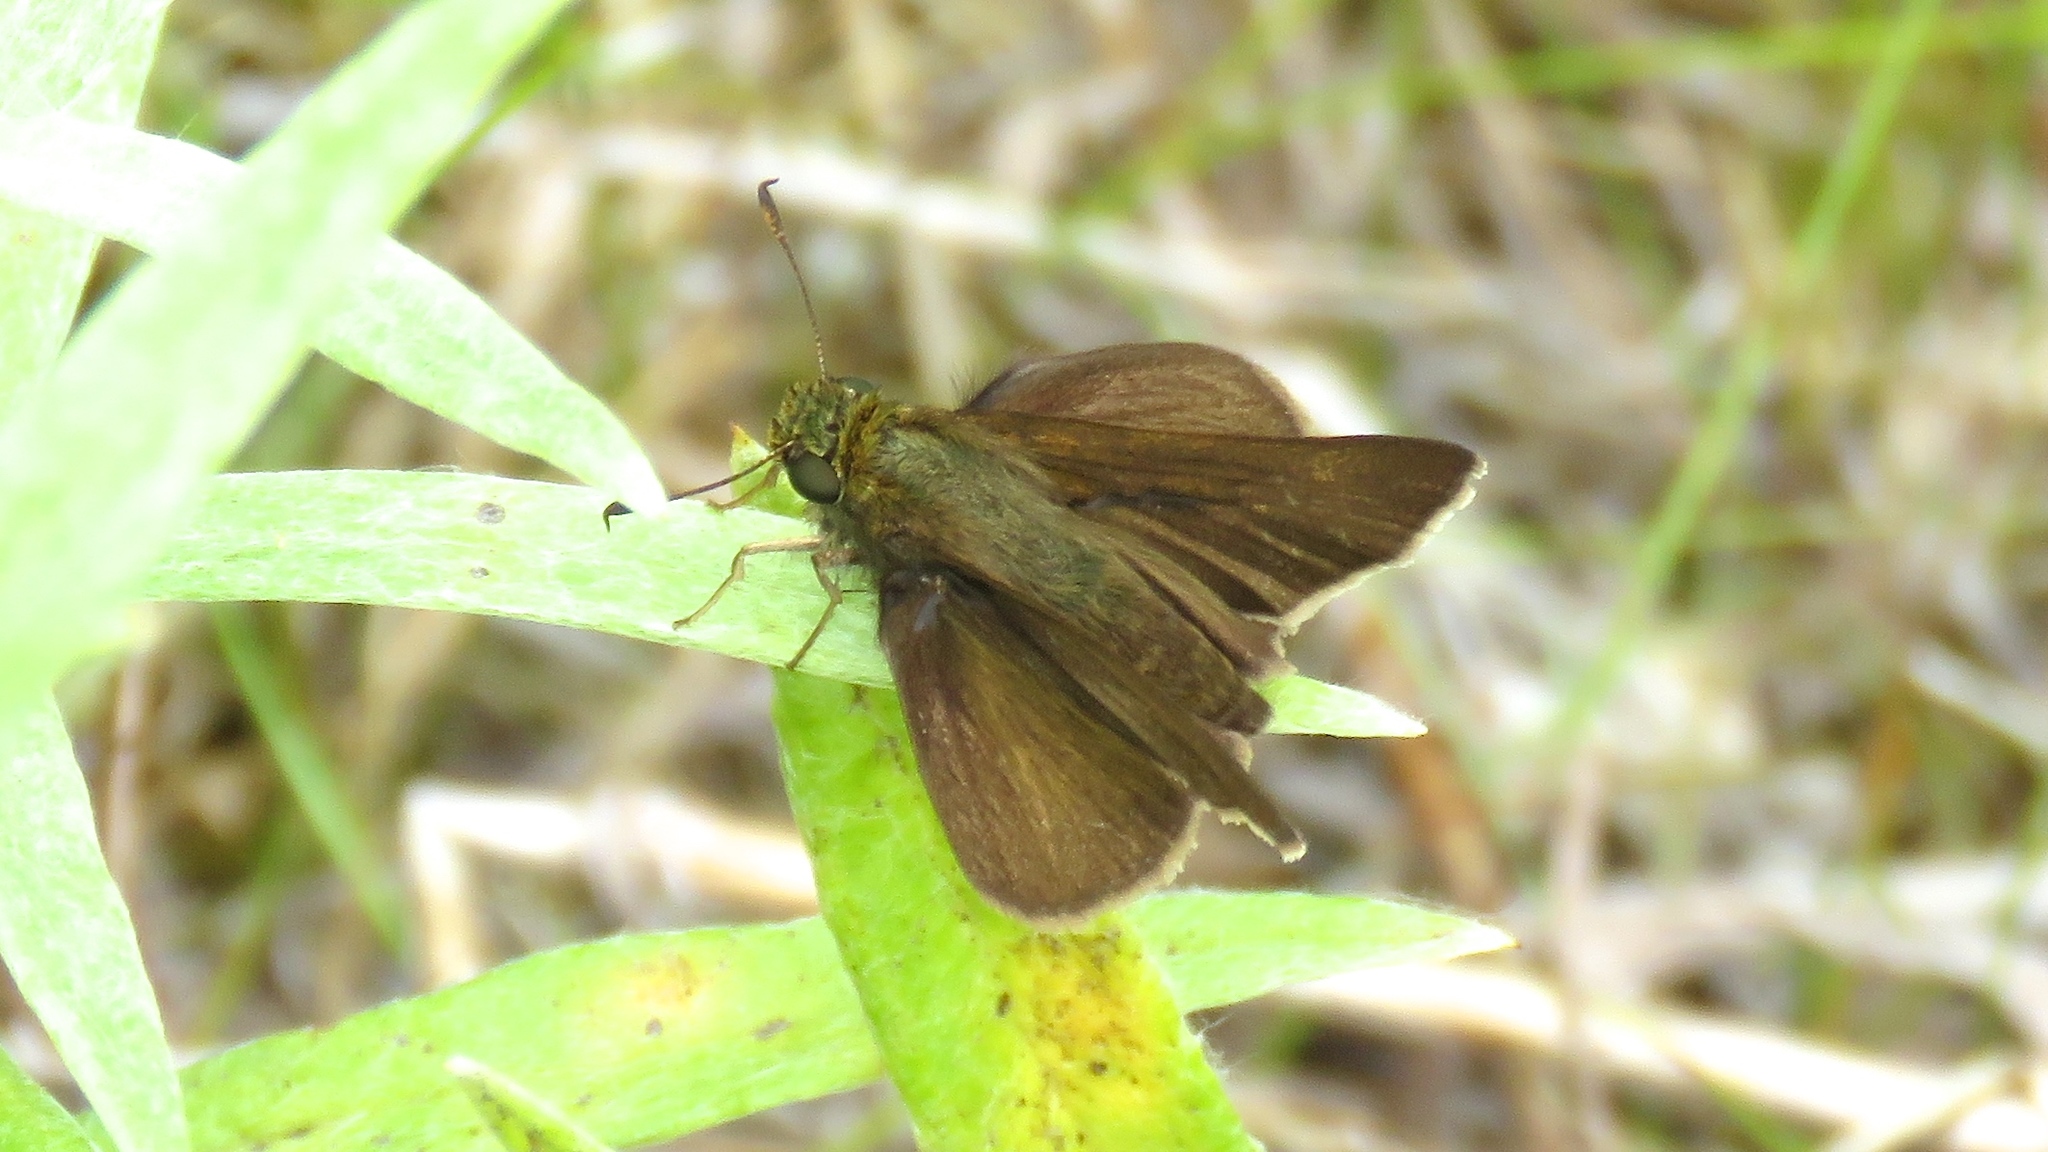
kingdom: Animalia
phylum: Arthropoda
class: Insecta
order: Lepidoptera
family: Hesperiidae
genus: Euphyes
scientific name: Euphyes vestris
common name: Dun skipper
